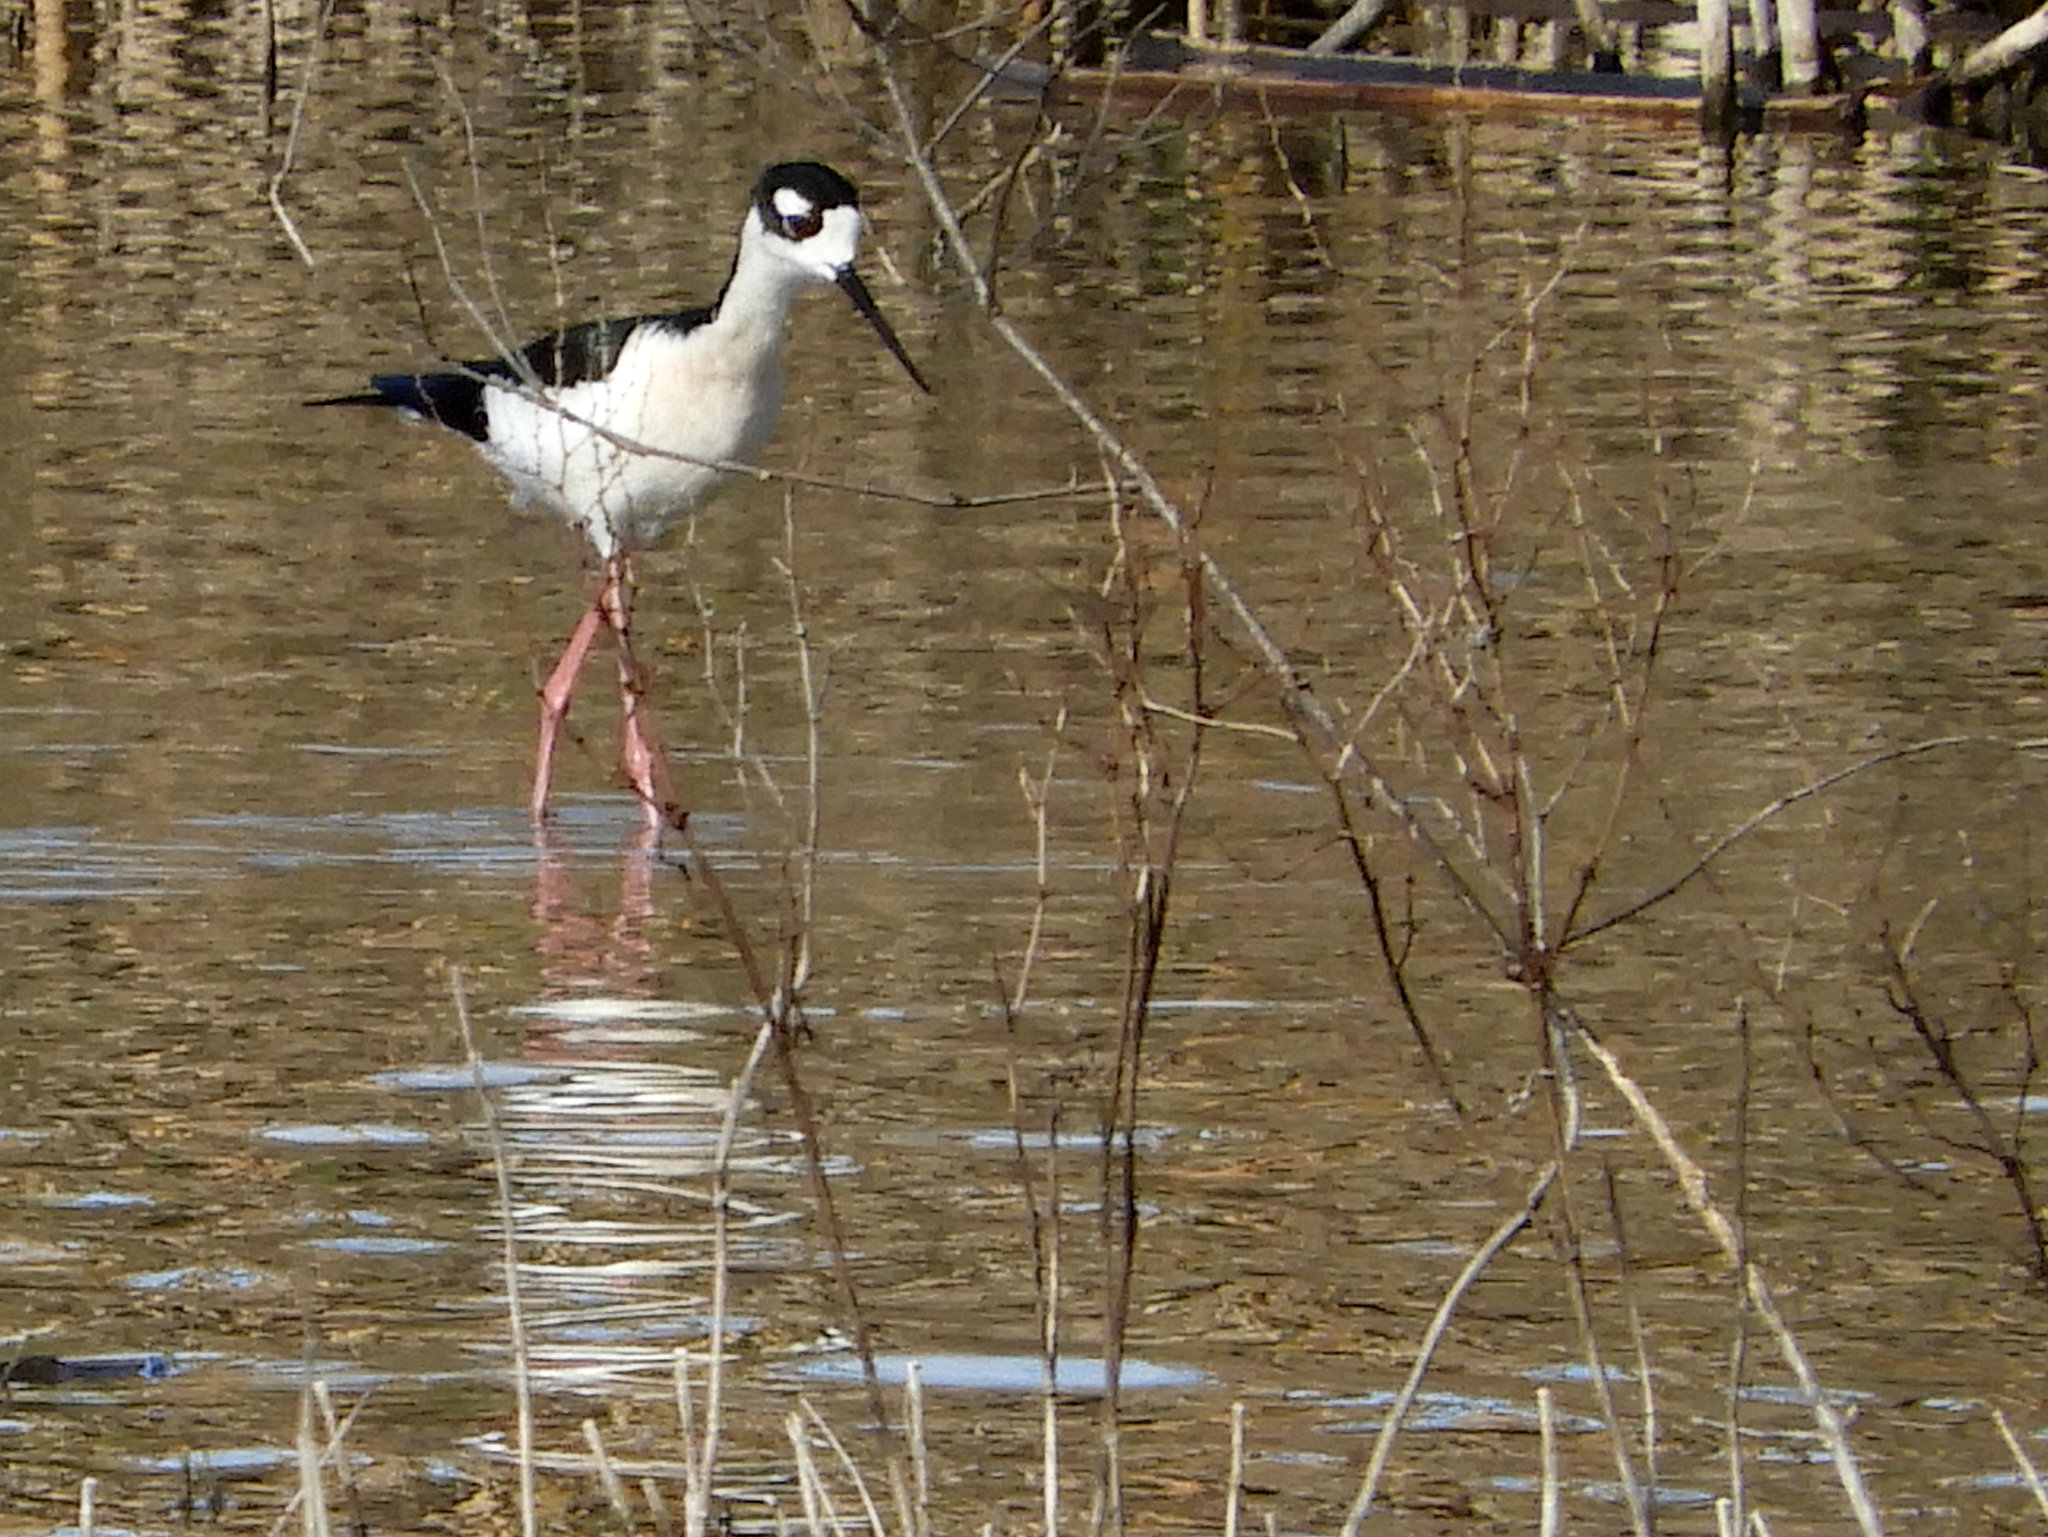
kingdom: Animalia
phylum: Chordata
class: Aves
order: Charadriiformes
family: Recurvirostridae
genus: Himantopus
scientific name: Himantopus mexicanus
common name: Black-necked stilt
